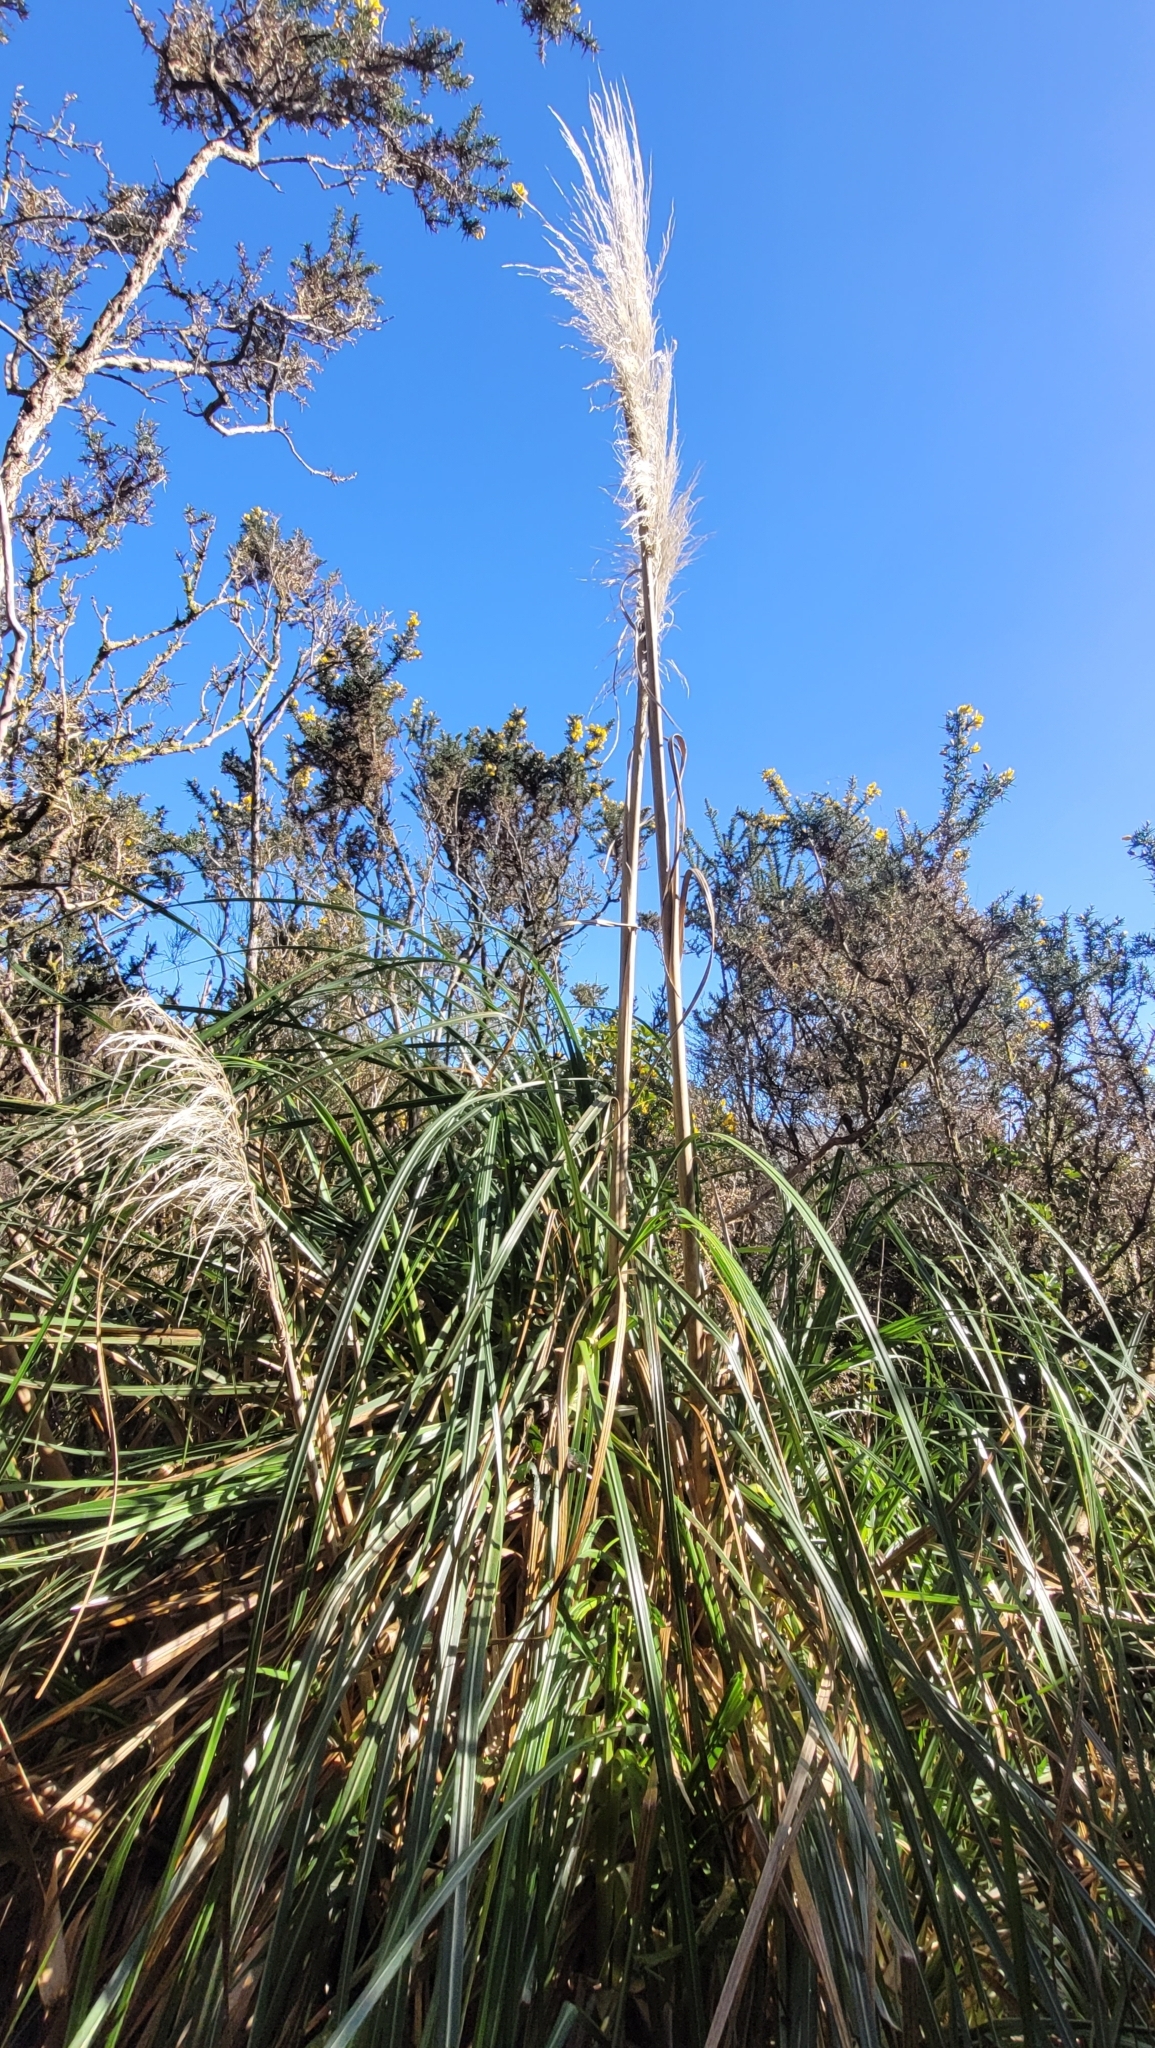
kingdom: Plantae
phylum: Tracheophyta
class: Liliopsida
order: Poales
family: Poaceae
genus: Cortaderia
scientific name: Cortaderia jubata
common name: Purple pampas grass
